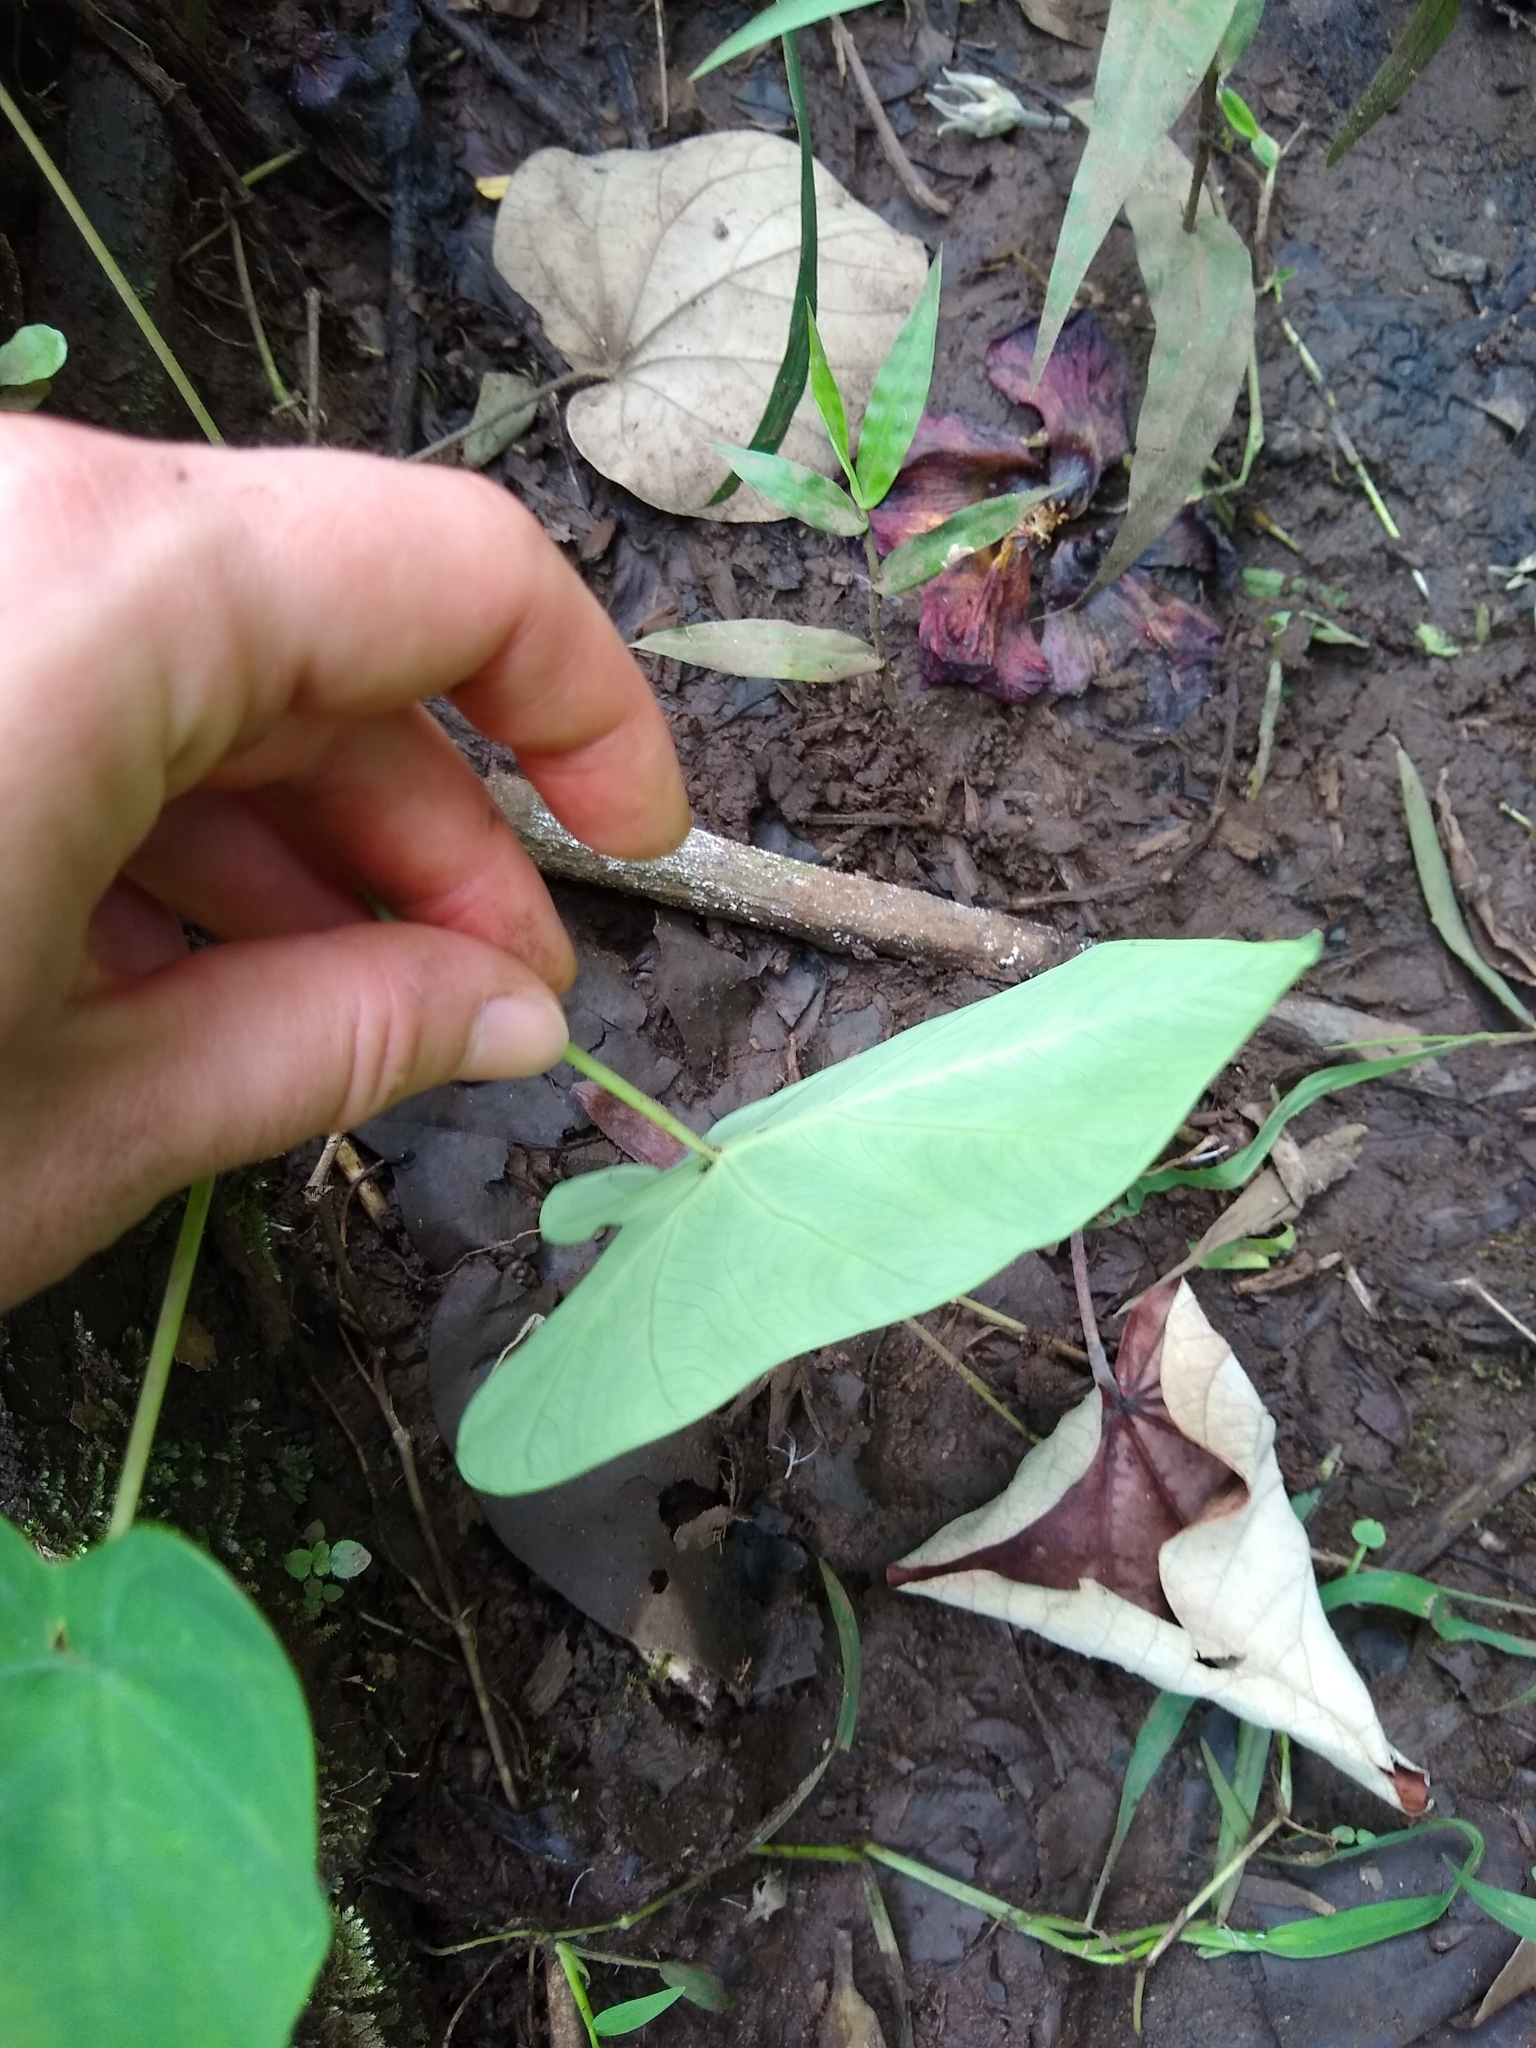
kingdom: Plantae
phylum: Tracheophyta
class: Liliopsida
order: Alismatales
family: Araceae
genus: Colocasia
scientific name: Colocasia esculenta
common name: Taro
